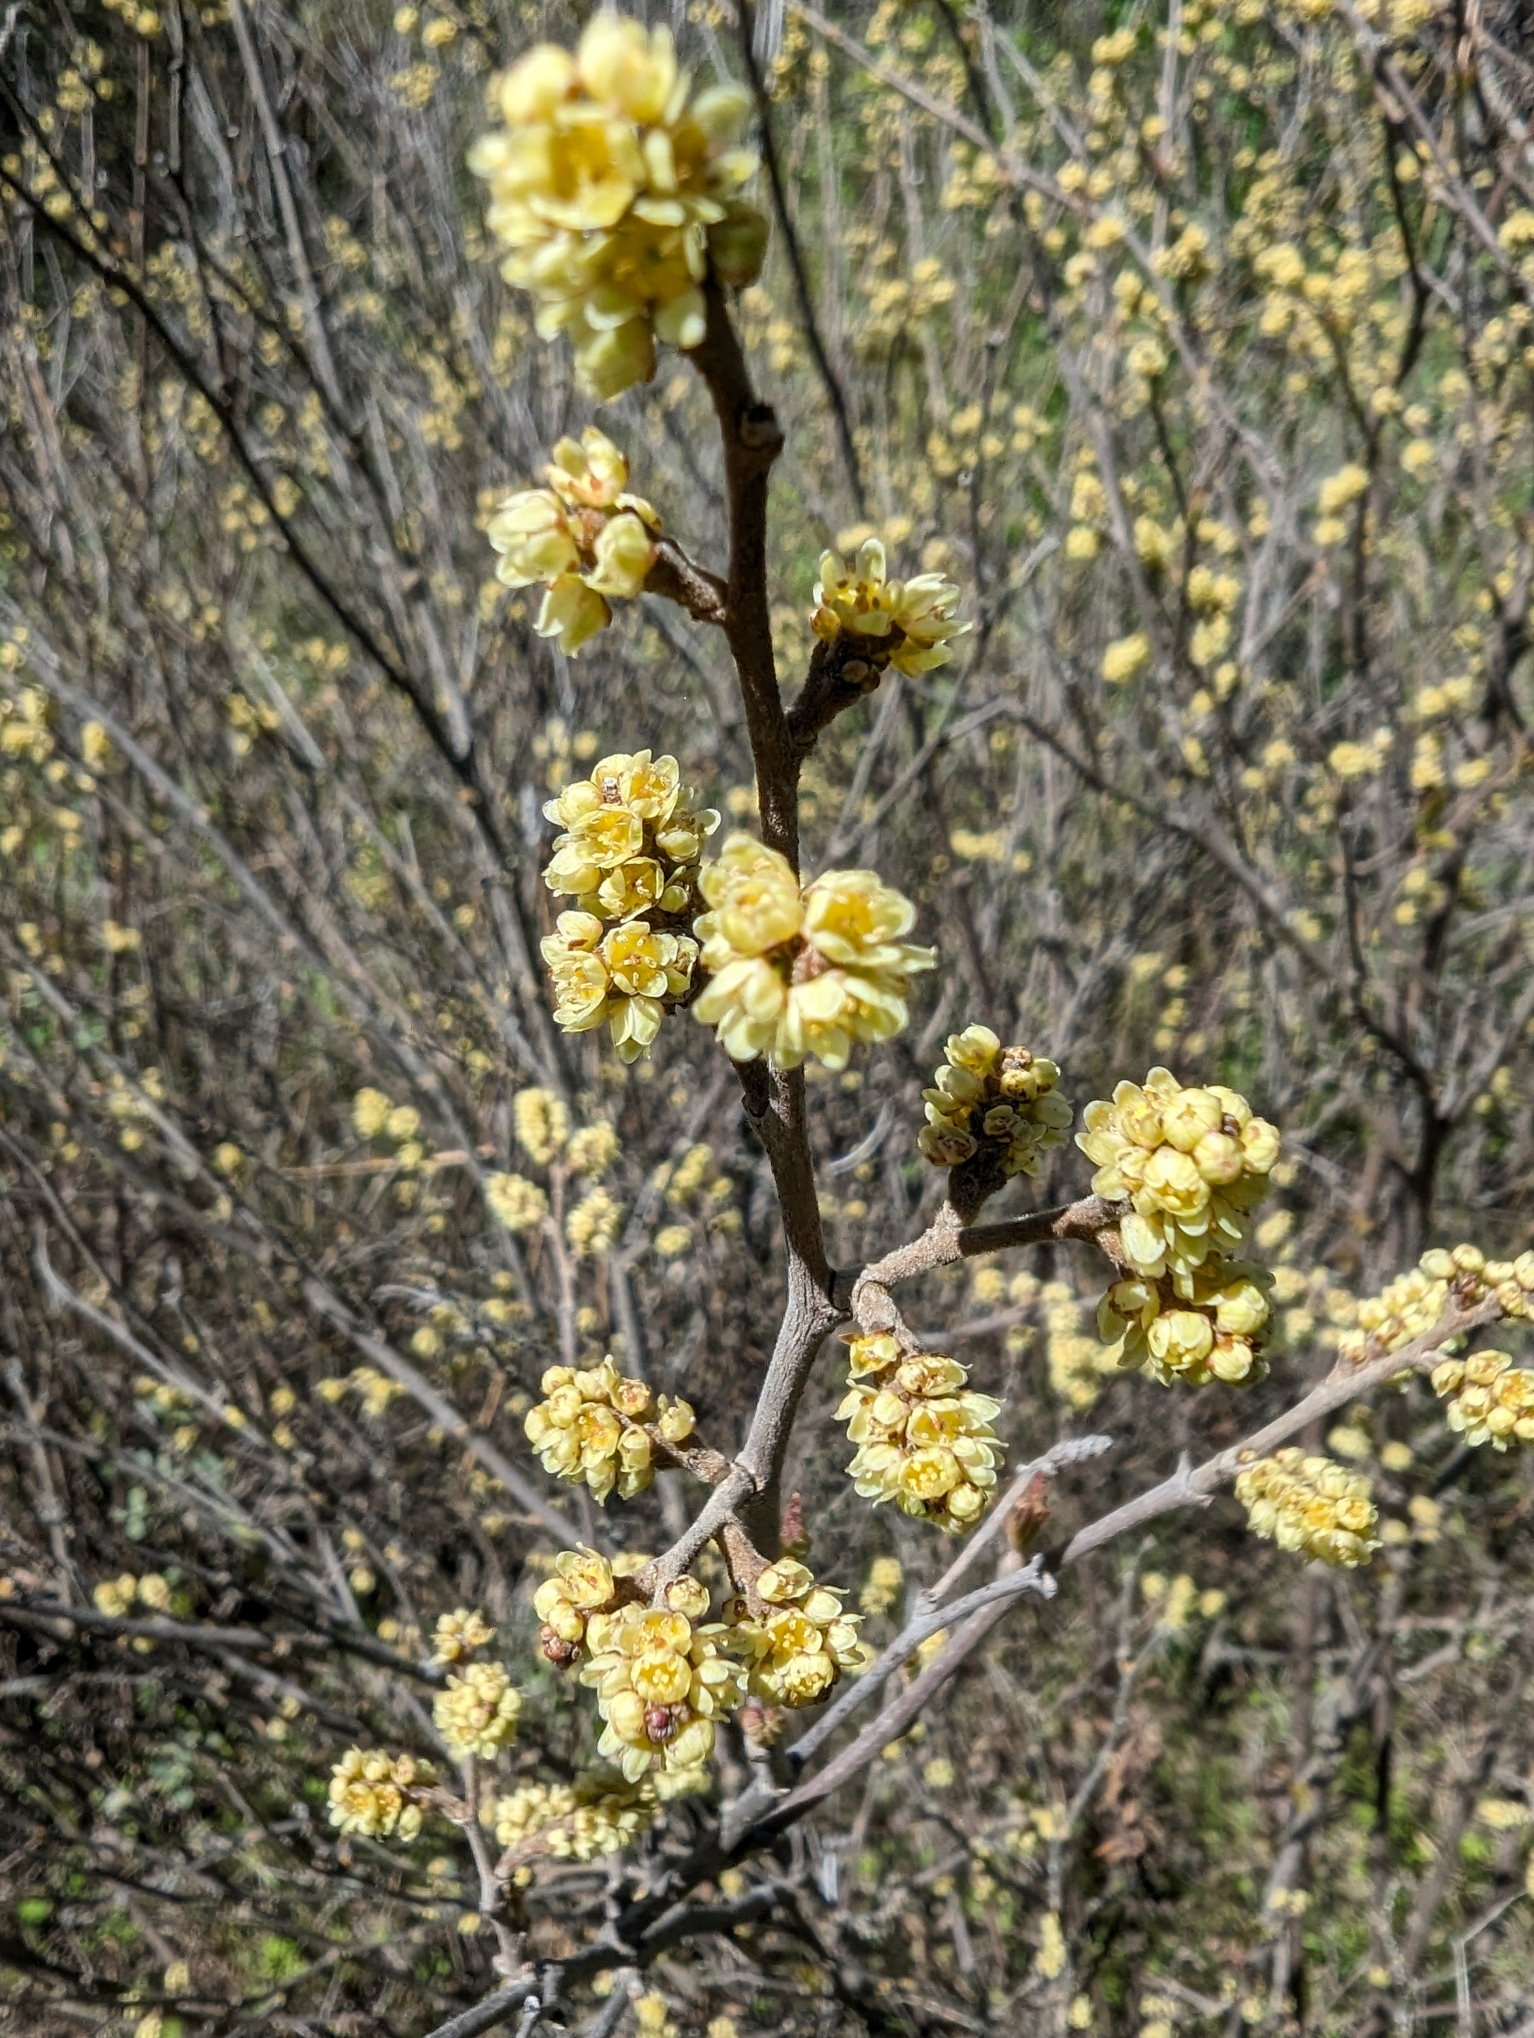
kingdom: Plantae
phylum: Tracheophyta
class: Magnoliopsida
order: Sapindales
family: Anacardiaceae
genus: Rhus
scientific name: Rhus aromatica
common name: Aromatic sumac
